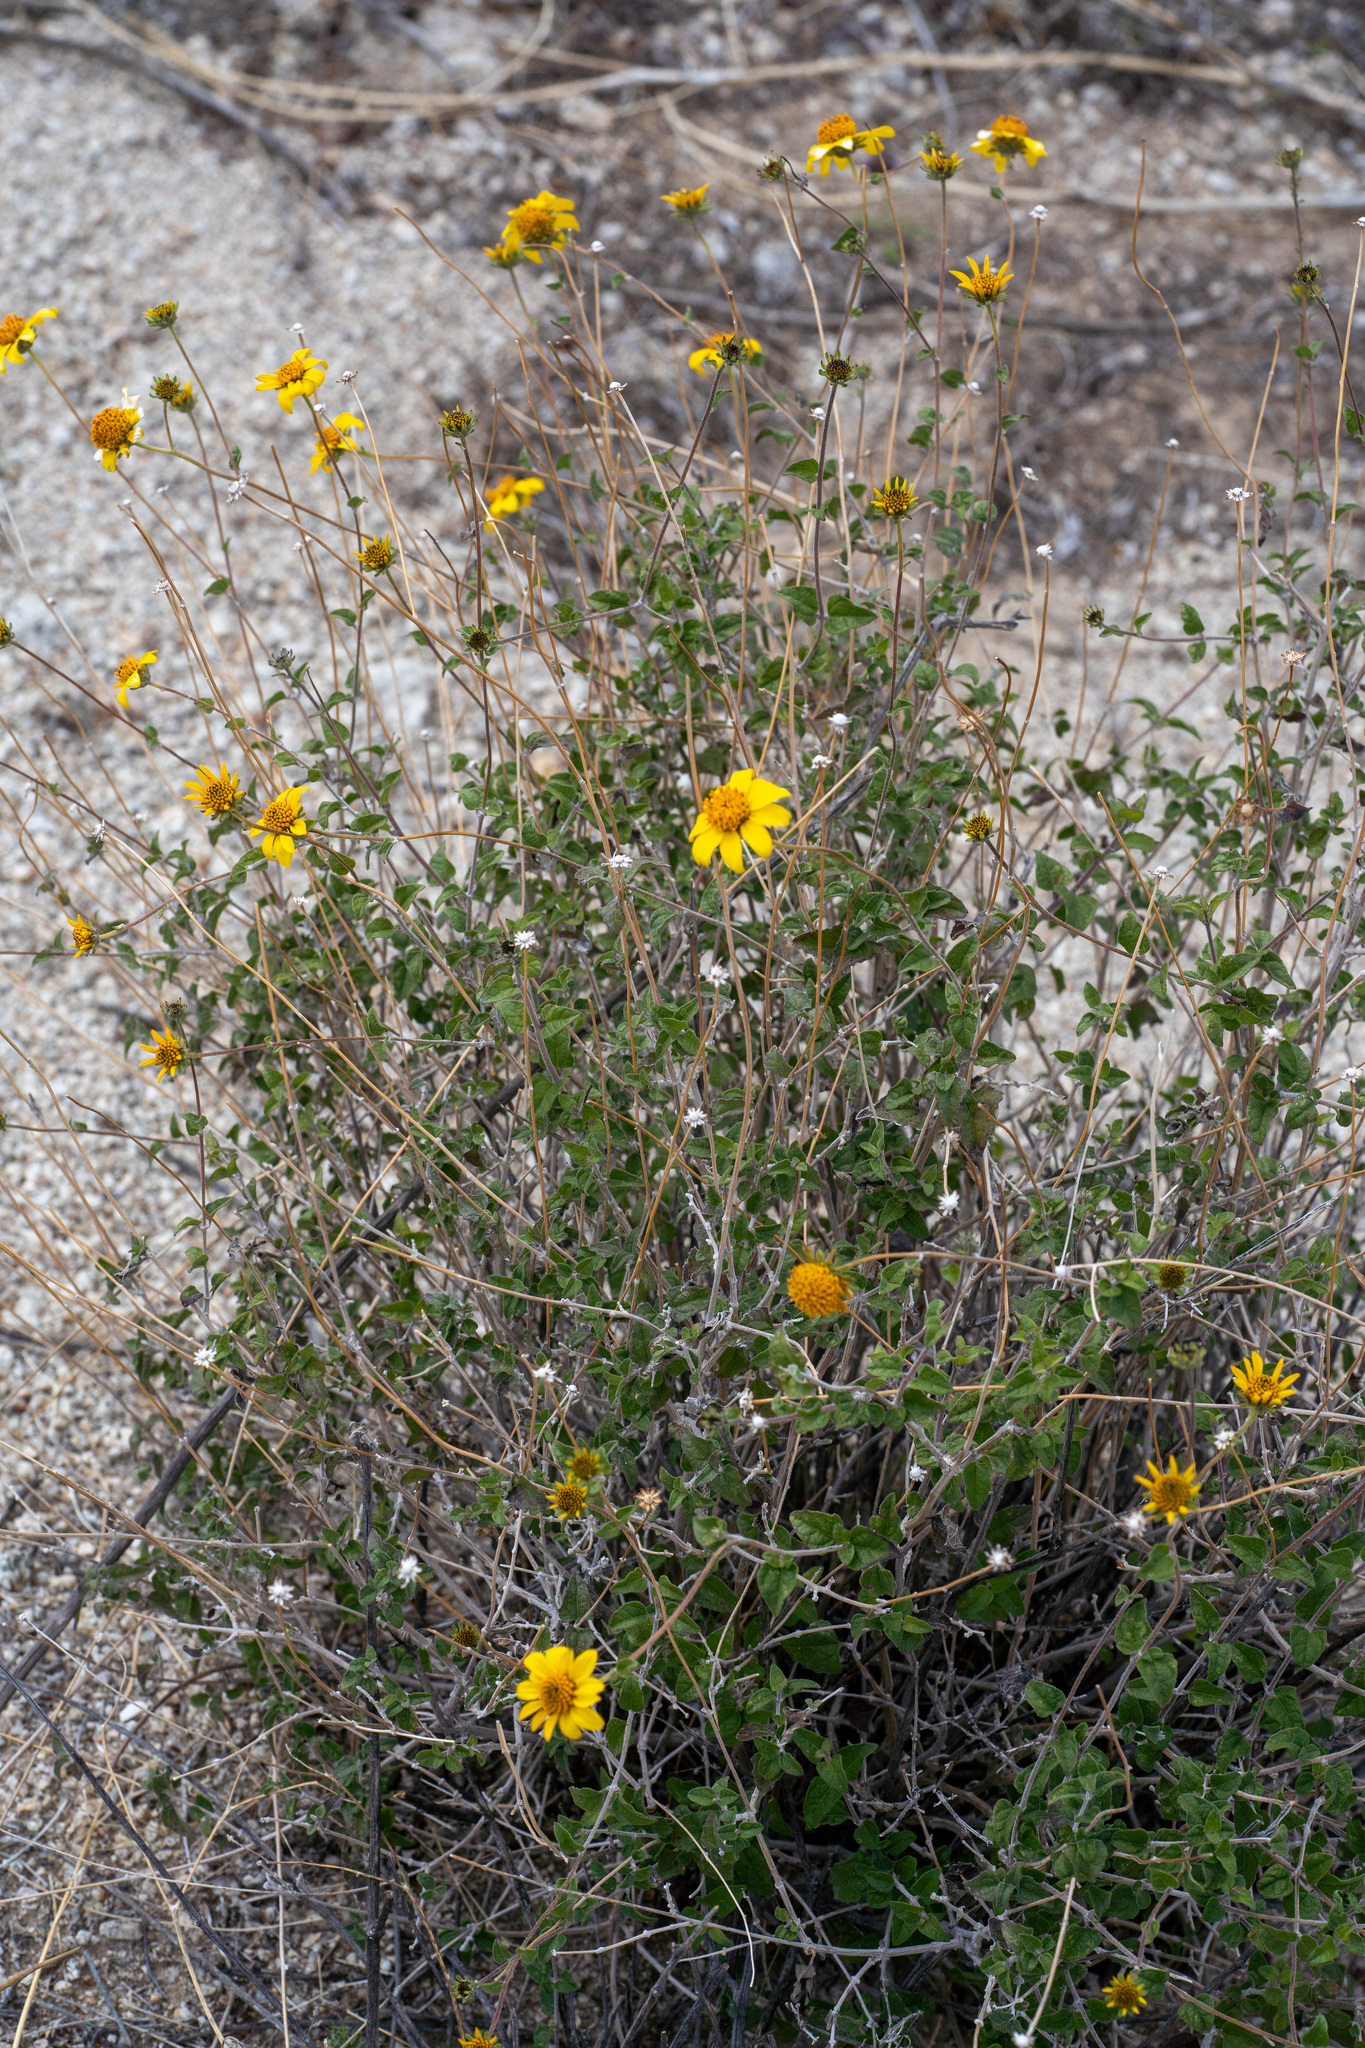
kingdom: Plantae
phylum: Tracheophyta
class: Magnoliopsida
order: Asterales
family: Asteraceae
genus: Bahiopsis
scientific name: Bahiopsis parishii
